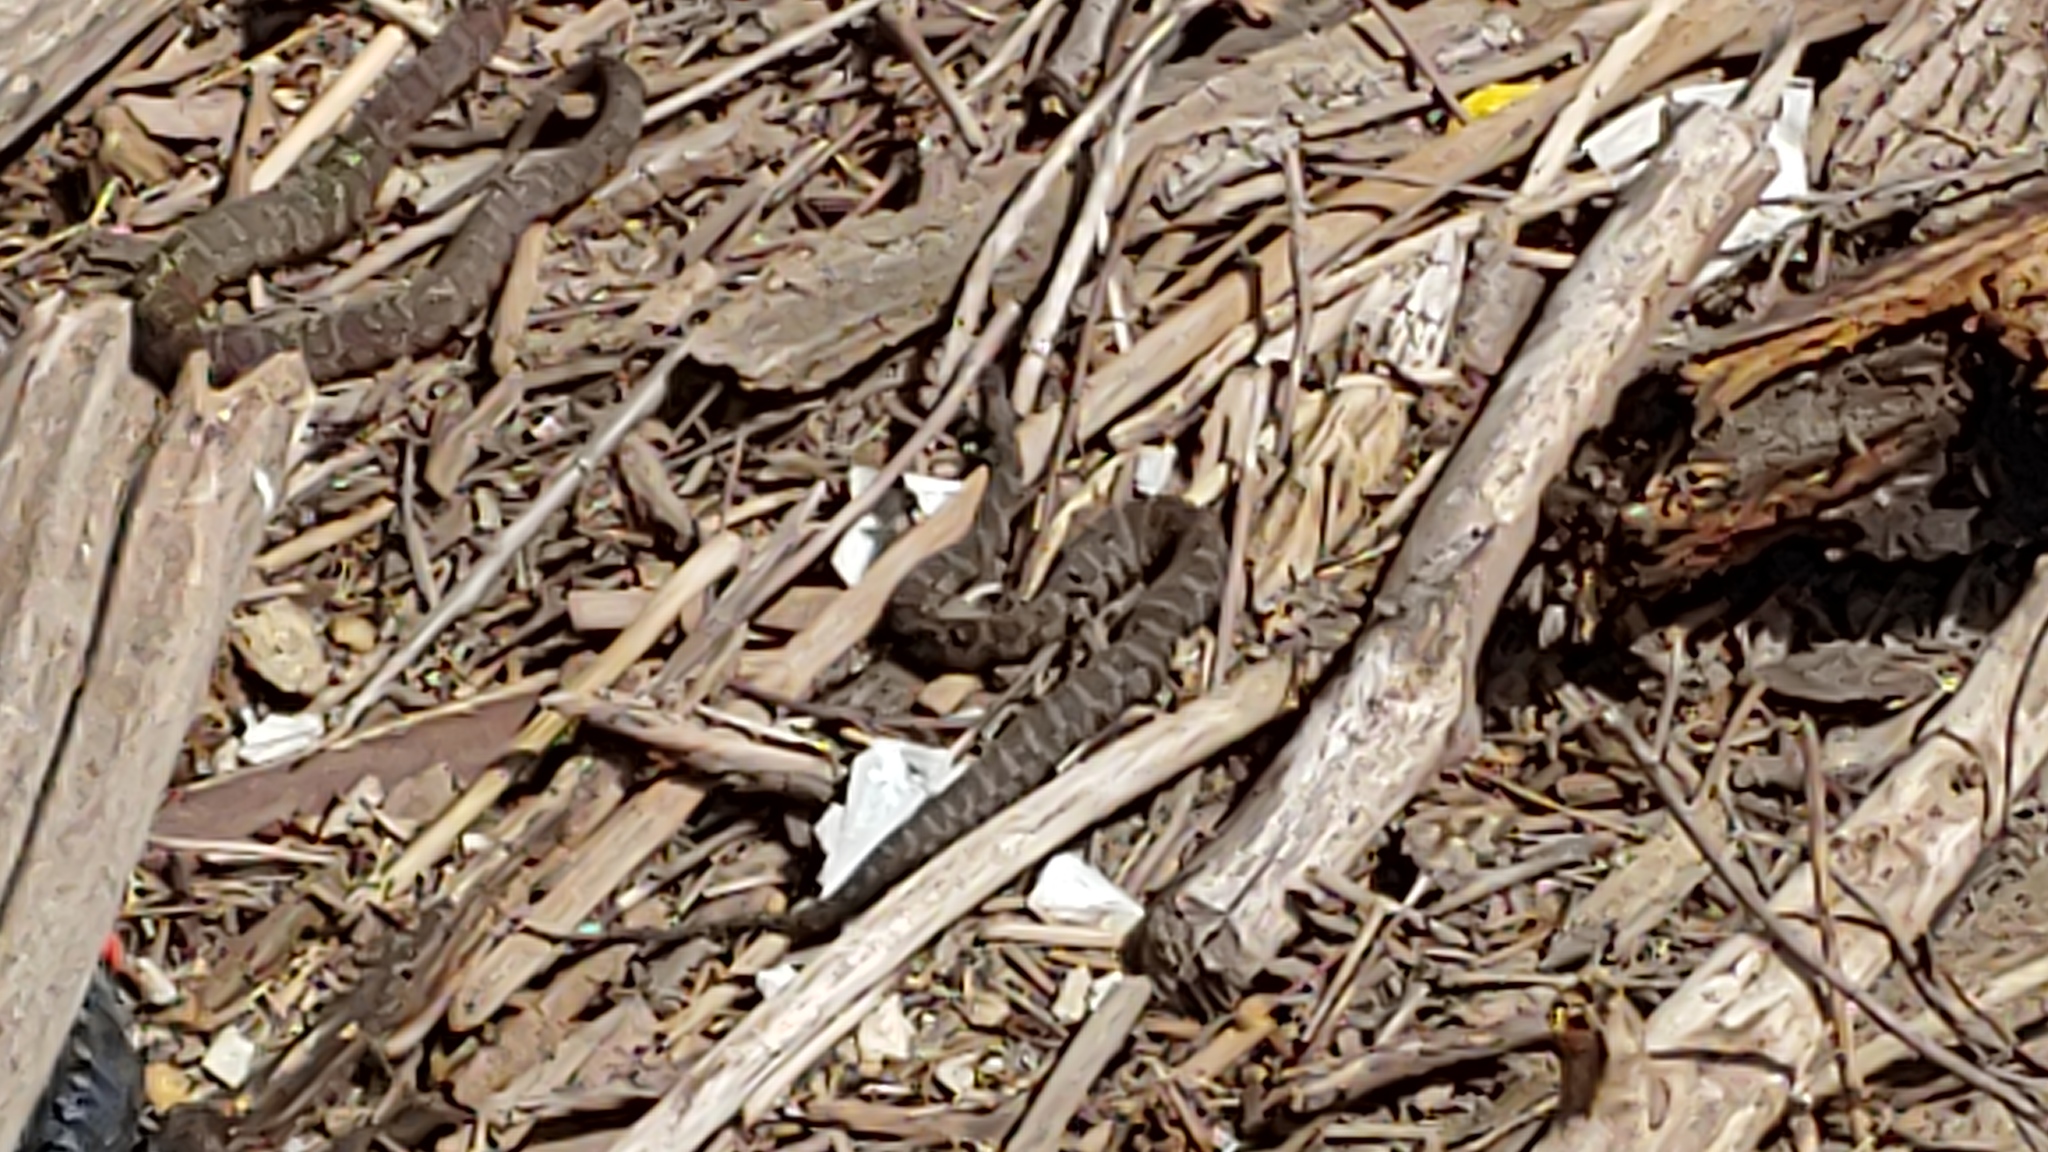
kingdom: Animalia
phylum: Chordata
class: Squamata
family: Colubridae
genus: Nerodia
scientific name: Nerodia sipedon
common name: Northern water snake
